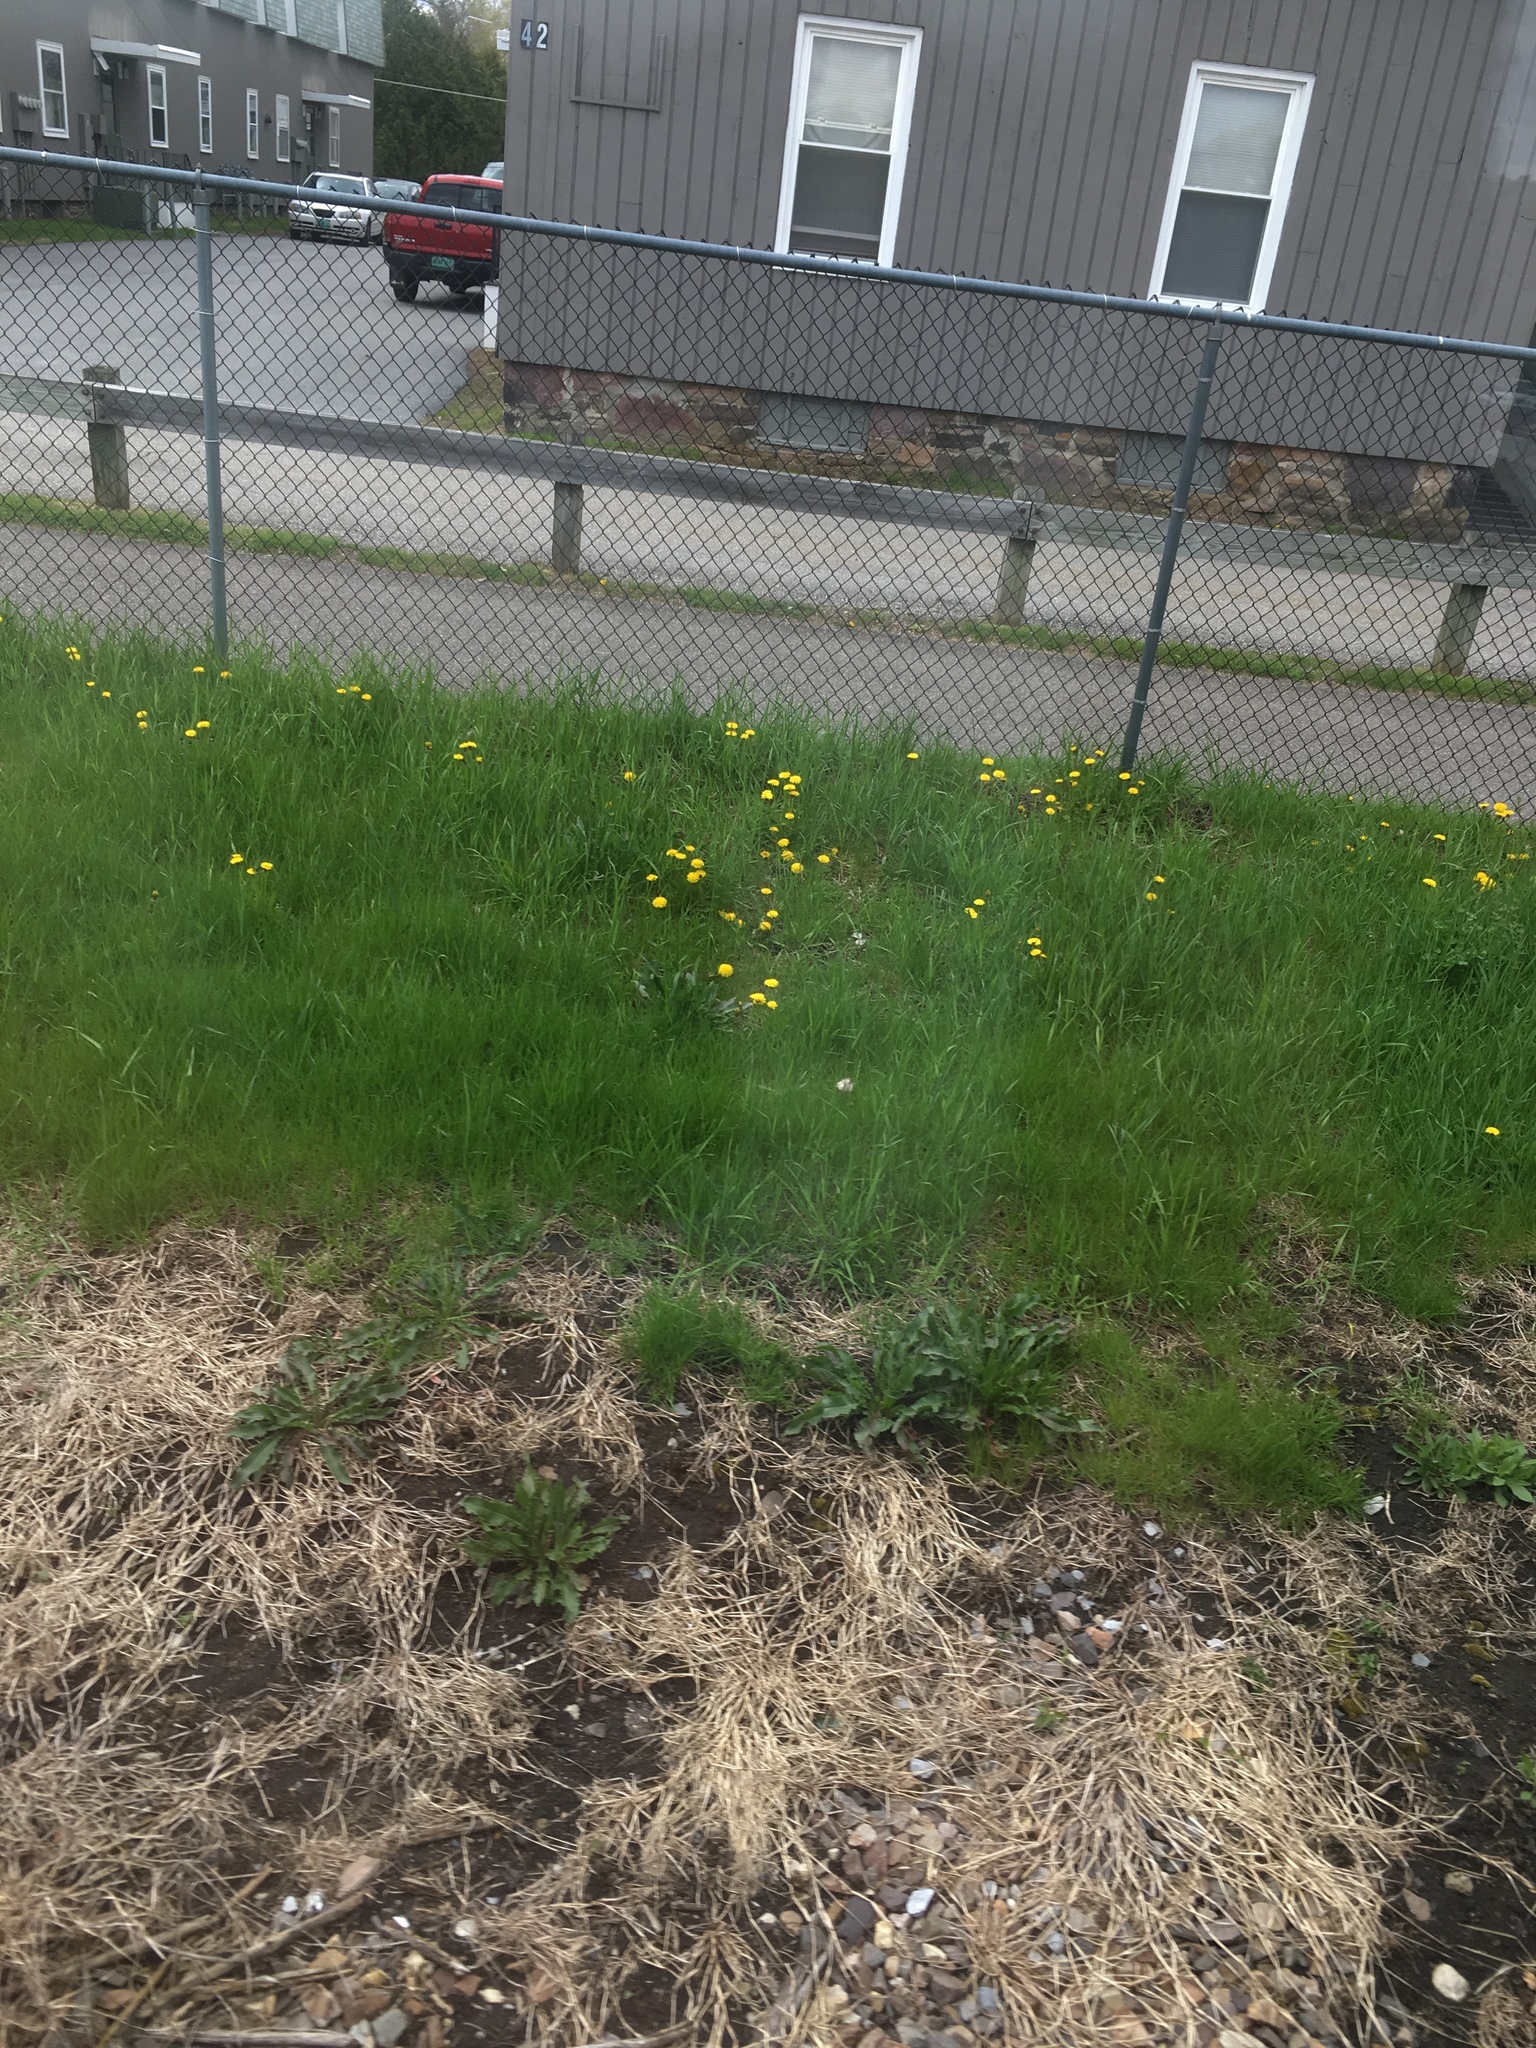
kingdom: Plantae
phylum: Tracheophyta
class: Magnoliopsida
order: Asterales
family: Asteraceae
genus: Taraxacum
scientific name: Taraxacum
